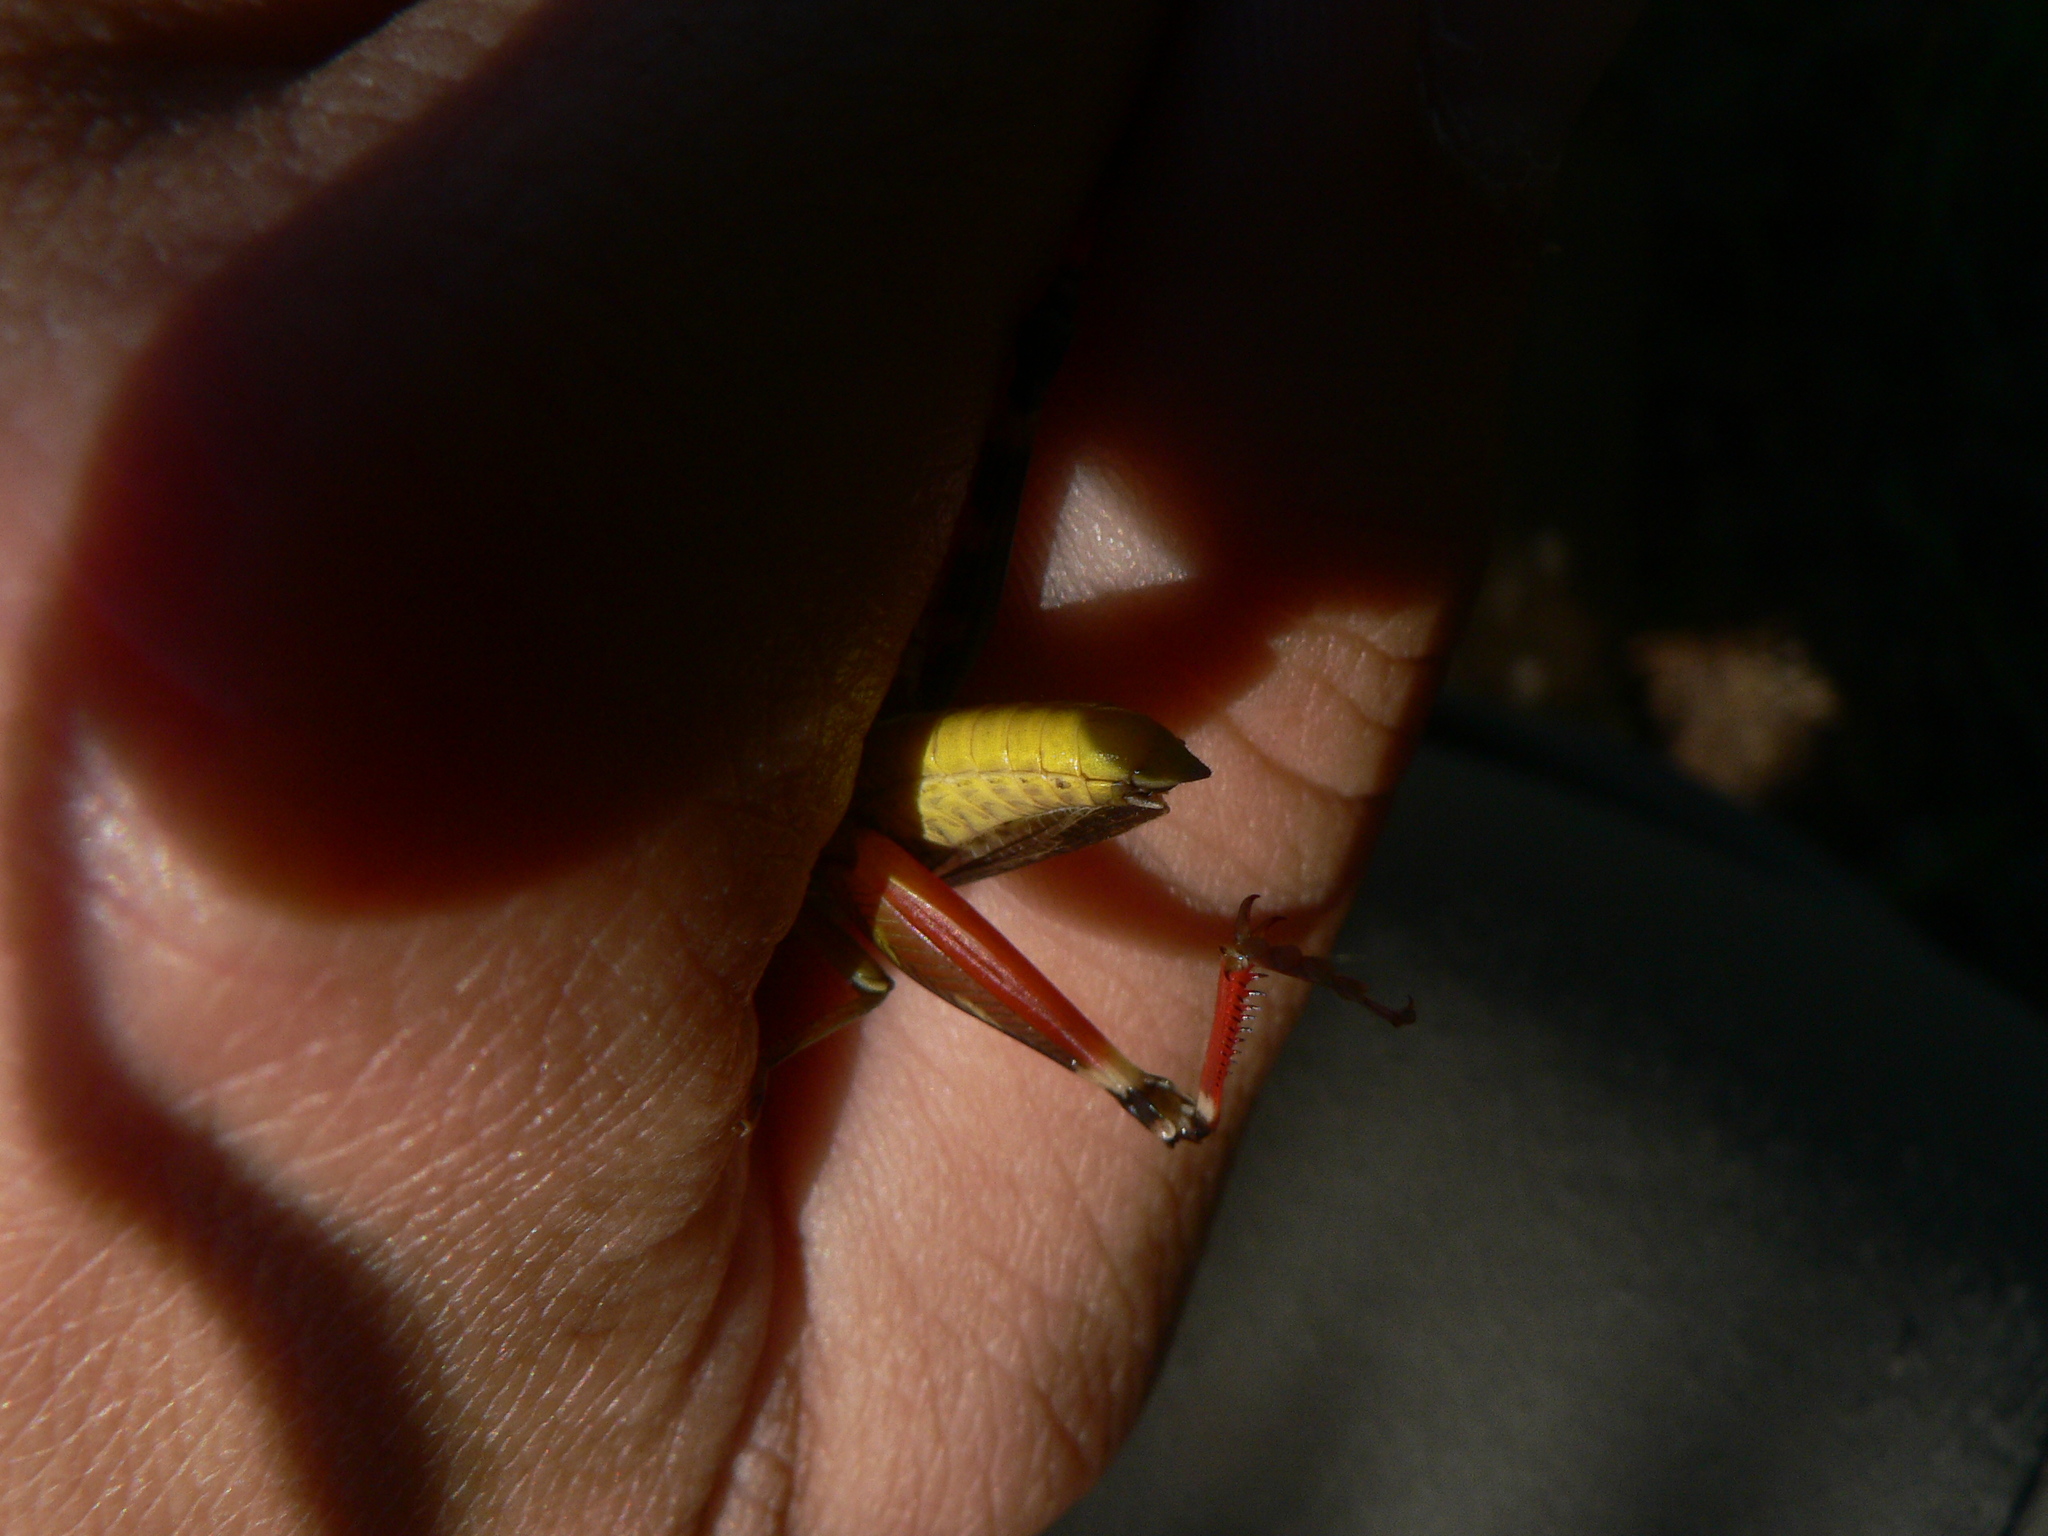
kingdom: Animalia
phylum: Arthropoda
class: Insecta
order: Orthoptera
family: Acrididae
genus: Arcyptera
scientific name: Arcyptera microptera
